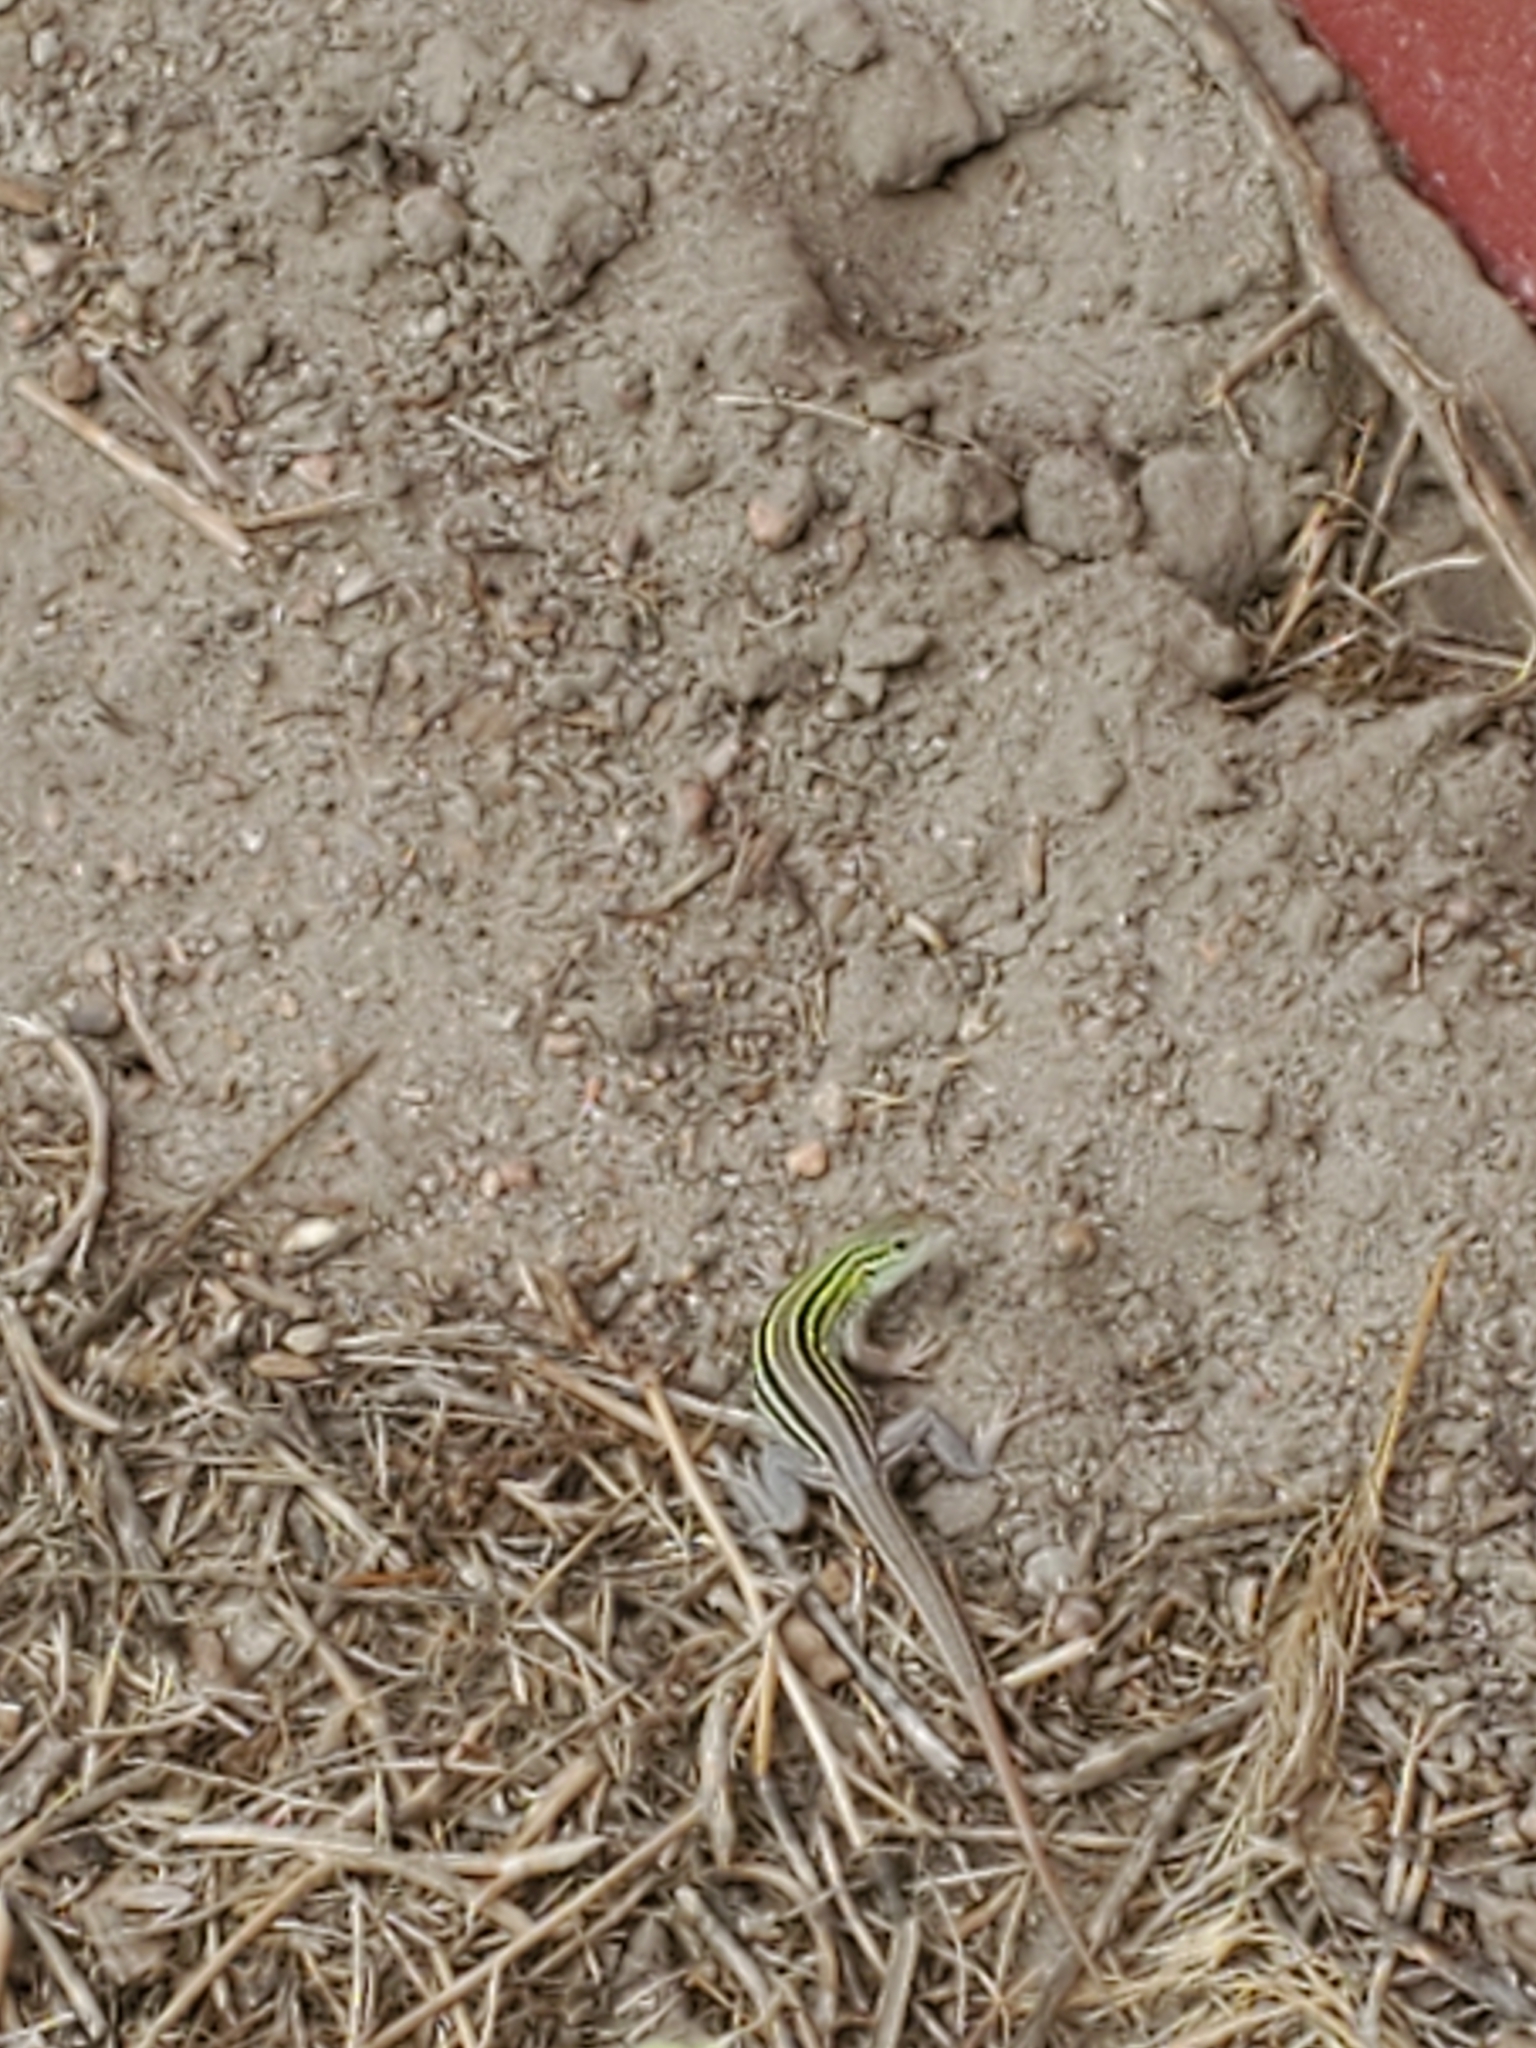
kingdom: Animalia
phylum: Chordata
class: Squamata
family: Teiidae
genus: Aspidoscelis
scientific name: Aspidoscelis sexlineatus
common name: Six-lined racerunner
